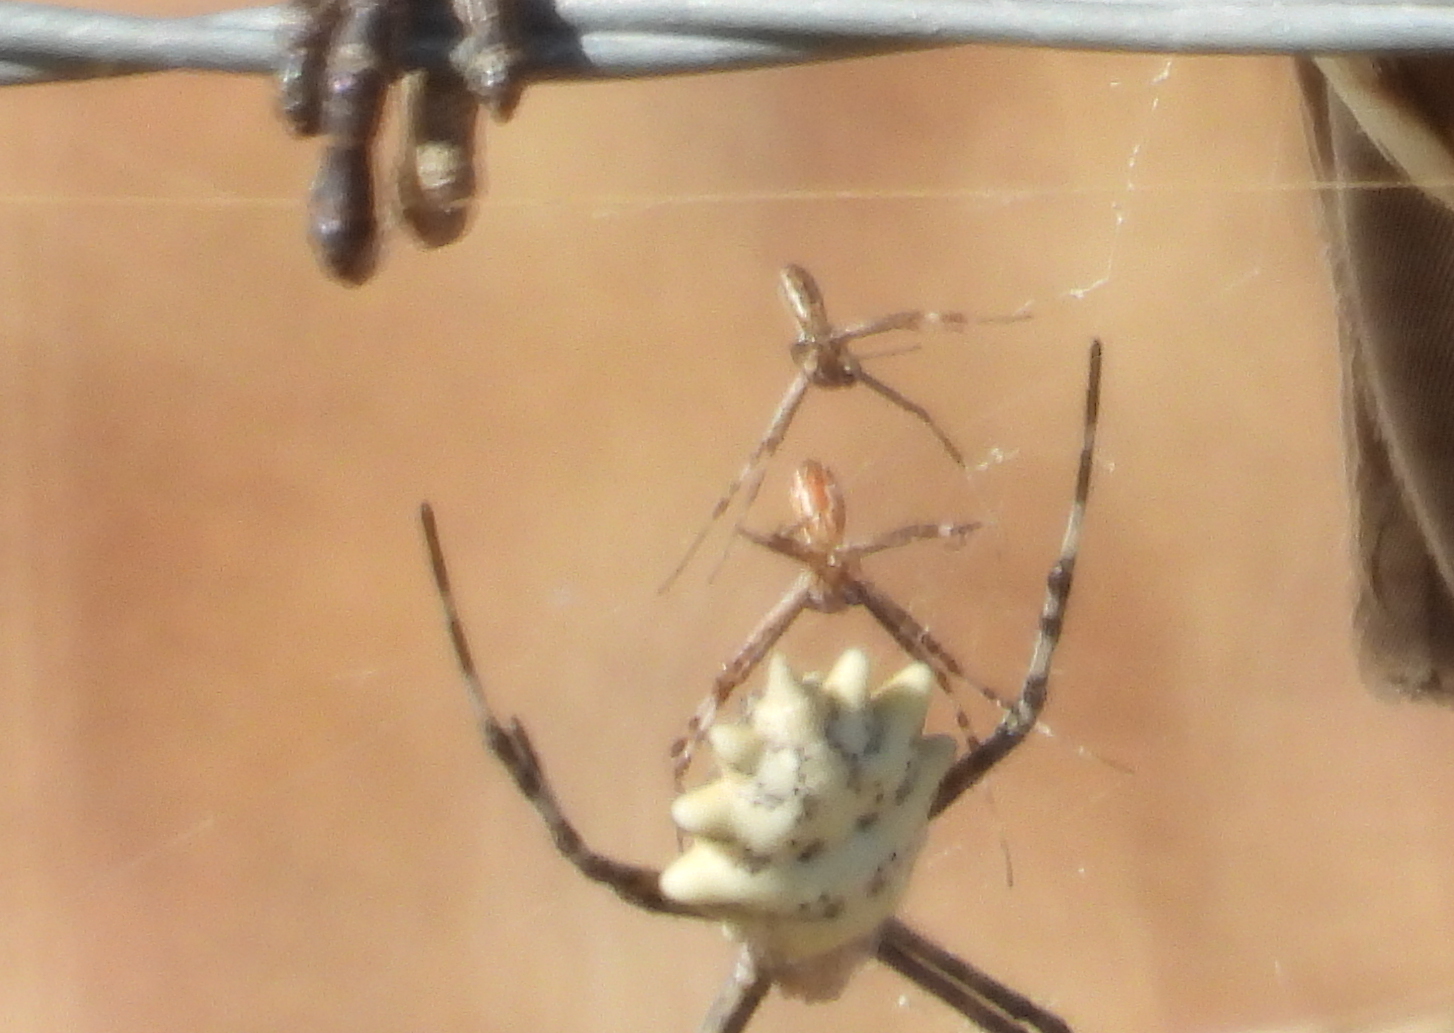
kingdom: Animalia
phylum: Arthropoda
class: Arachnida
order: Araneae
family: Araneidae
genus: Argiope
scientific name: Argiope lobata
